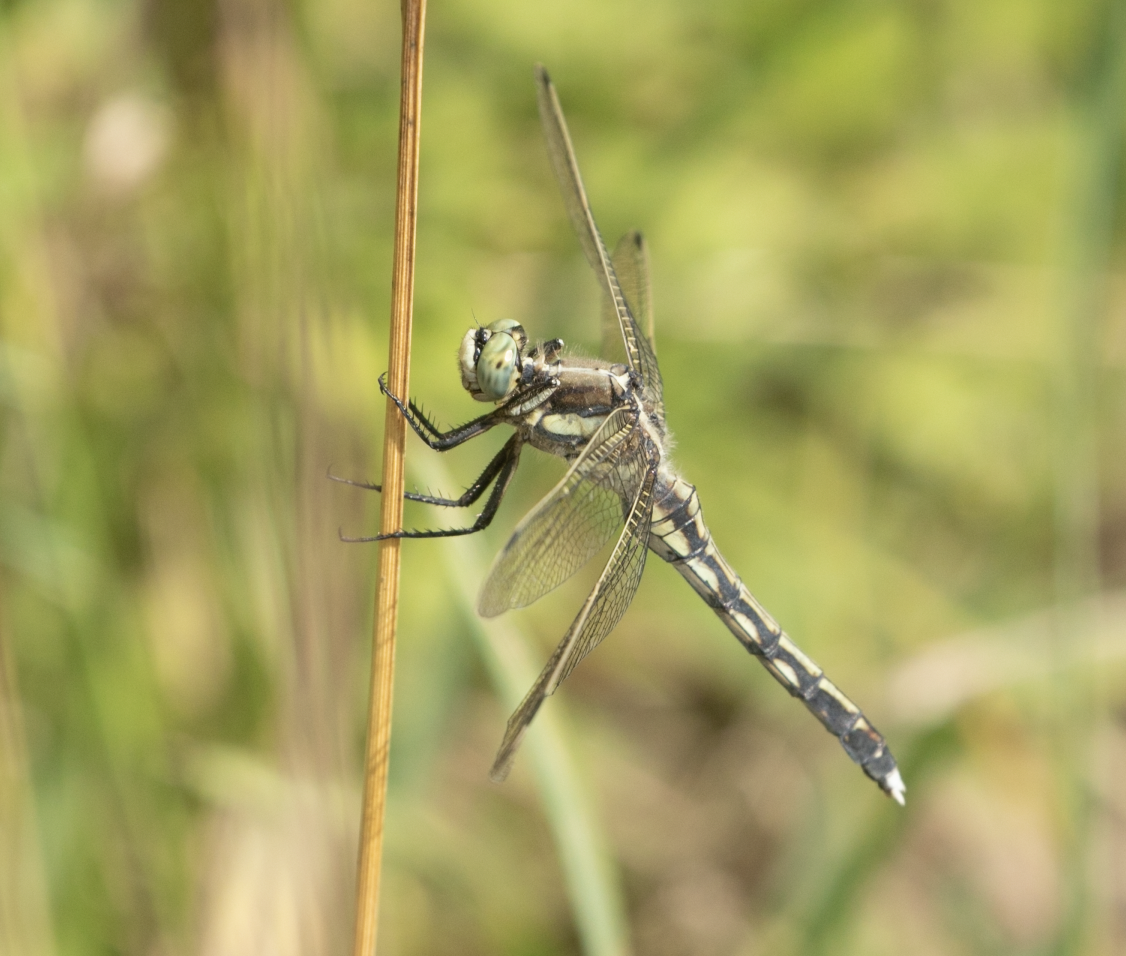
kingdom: Animalia
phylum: Arthropoda
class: Insecta
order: Odonata
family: Libellulidae
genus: Orthetrum
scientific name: Orthetrum albistylum
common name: White-tailed skimmer
